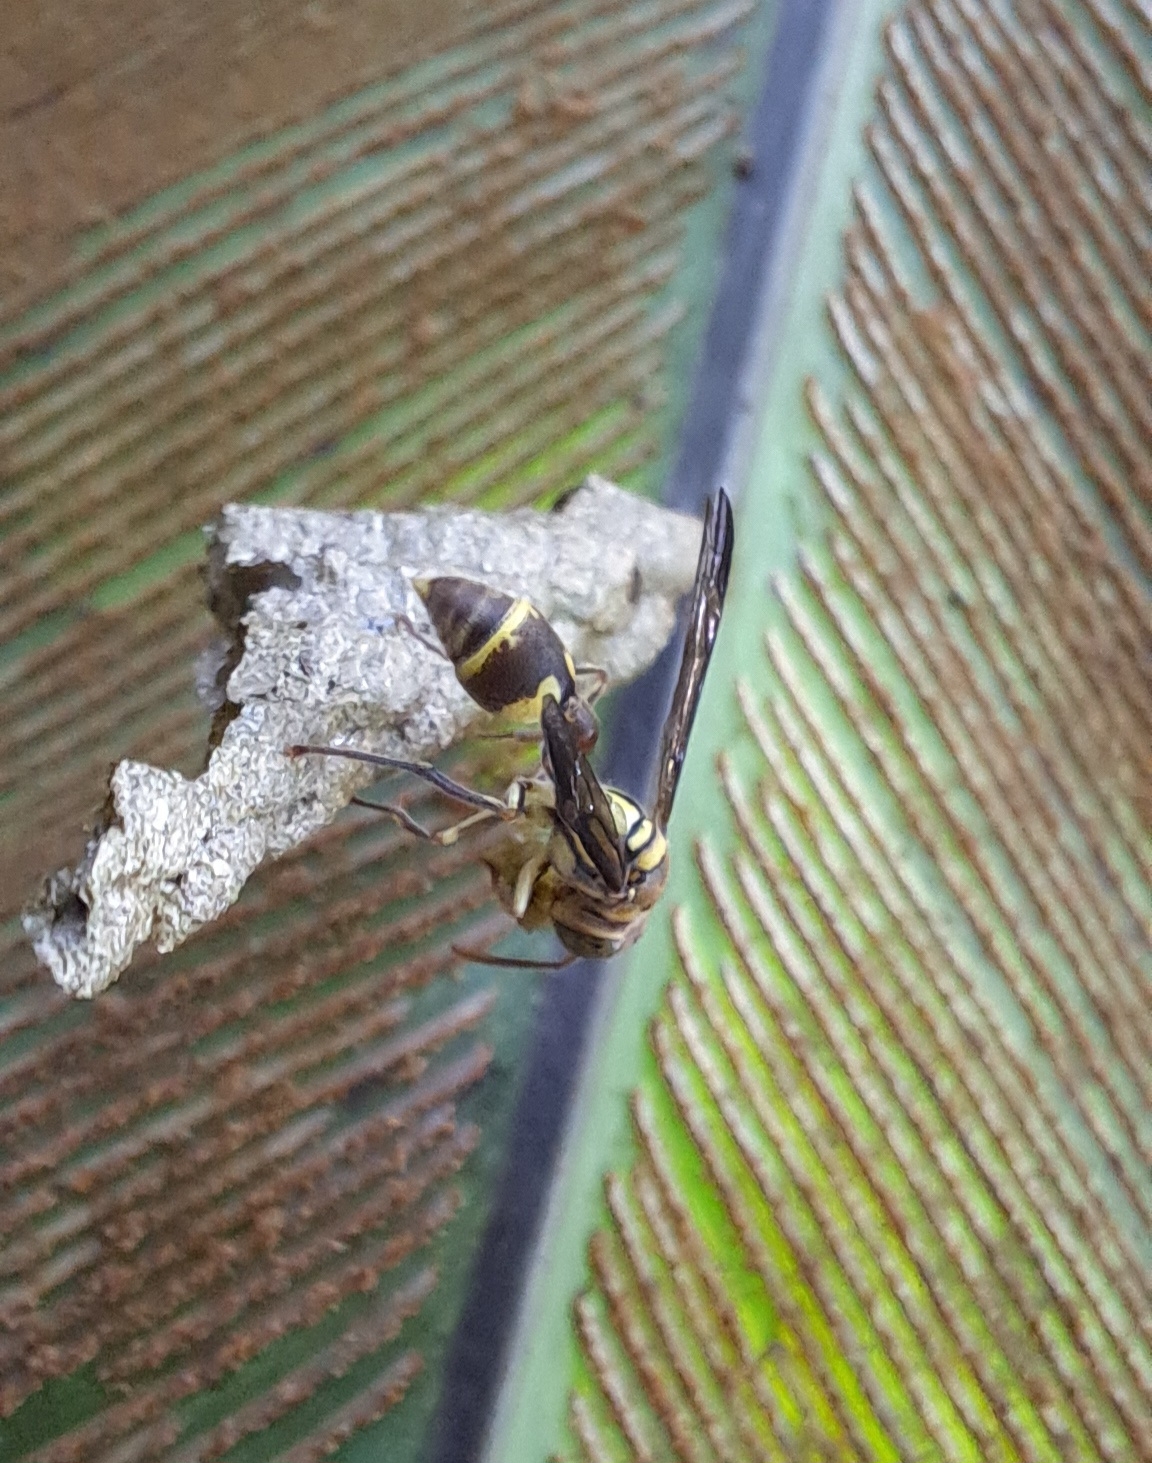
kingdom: Animalia
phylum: Arthropoda
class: Insecta
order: Hymenoptera
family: Vespidae
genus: Ropalidia
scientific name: Ropalidia stigma
